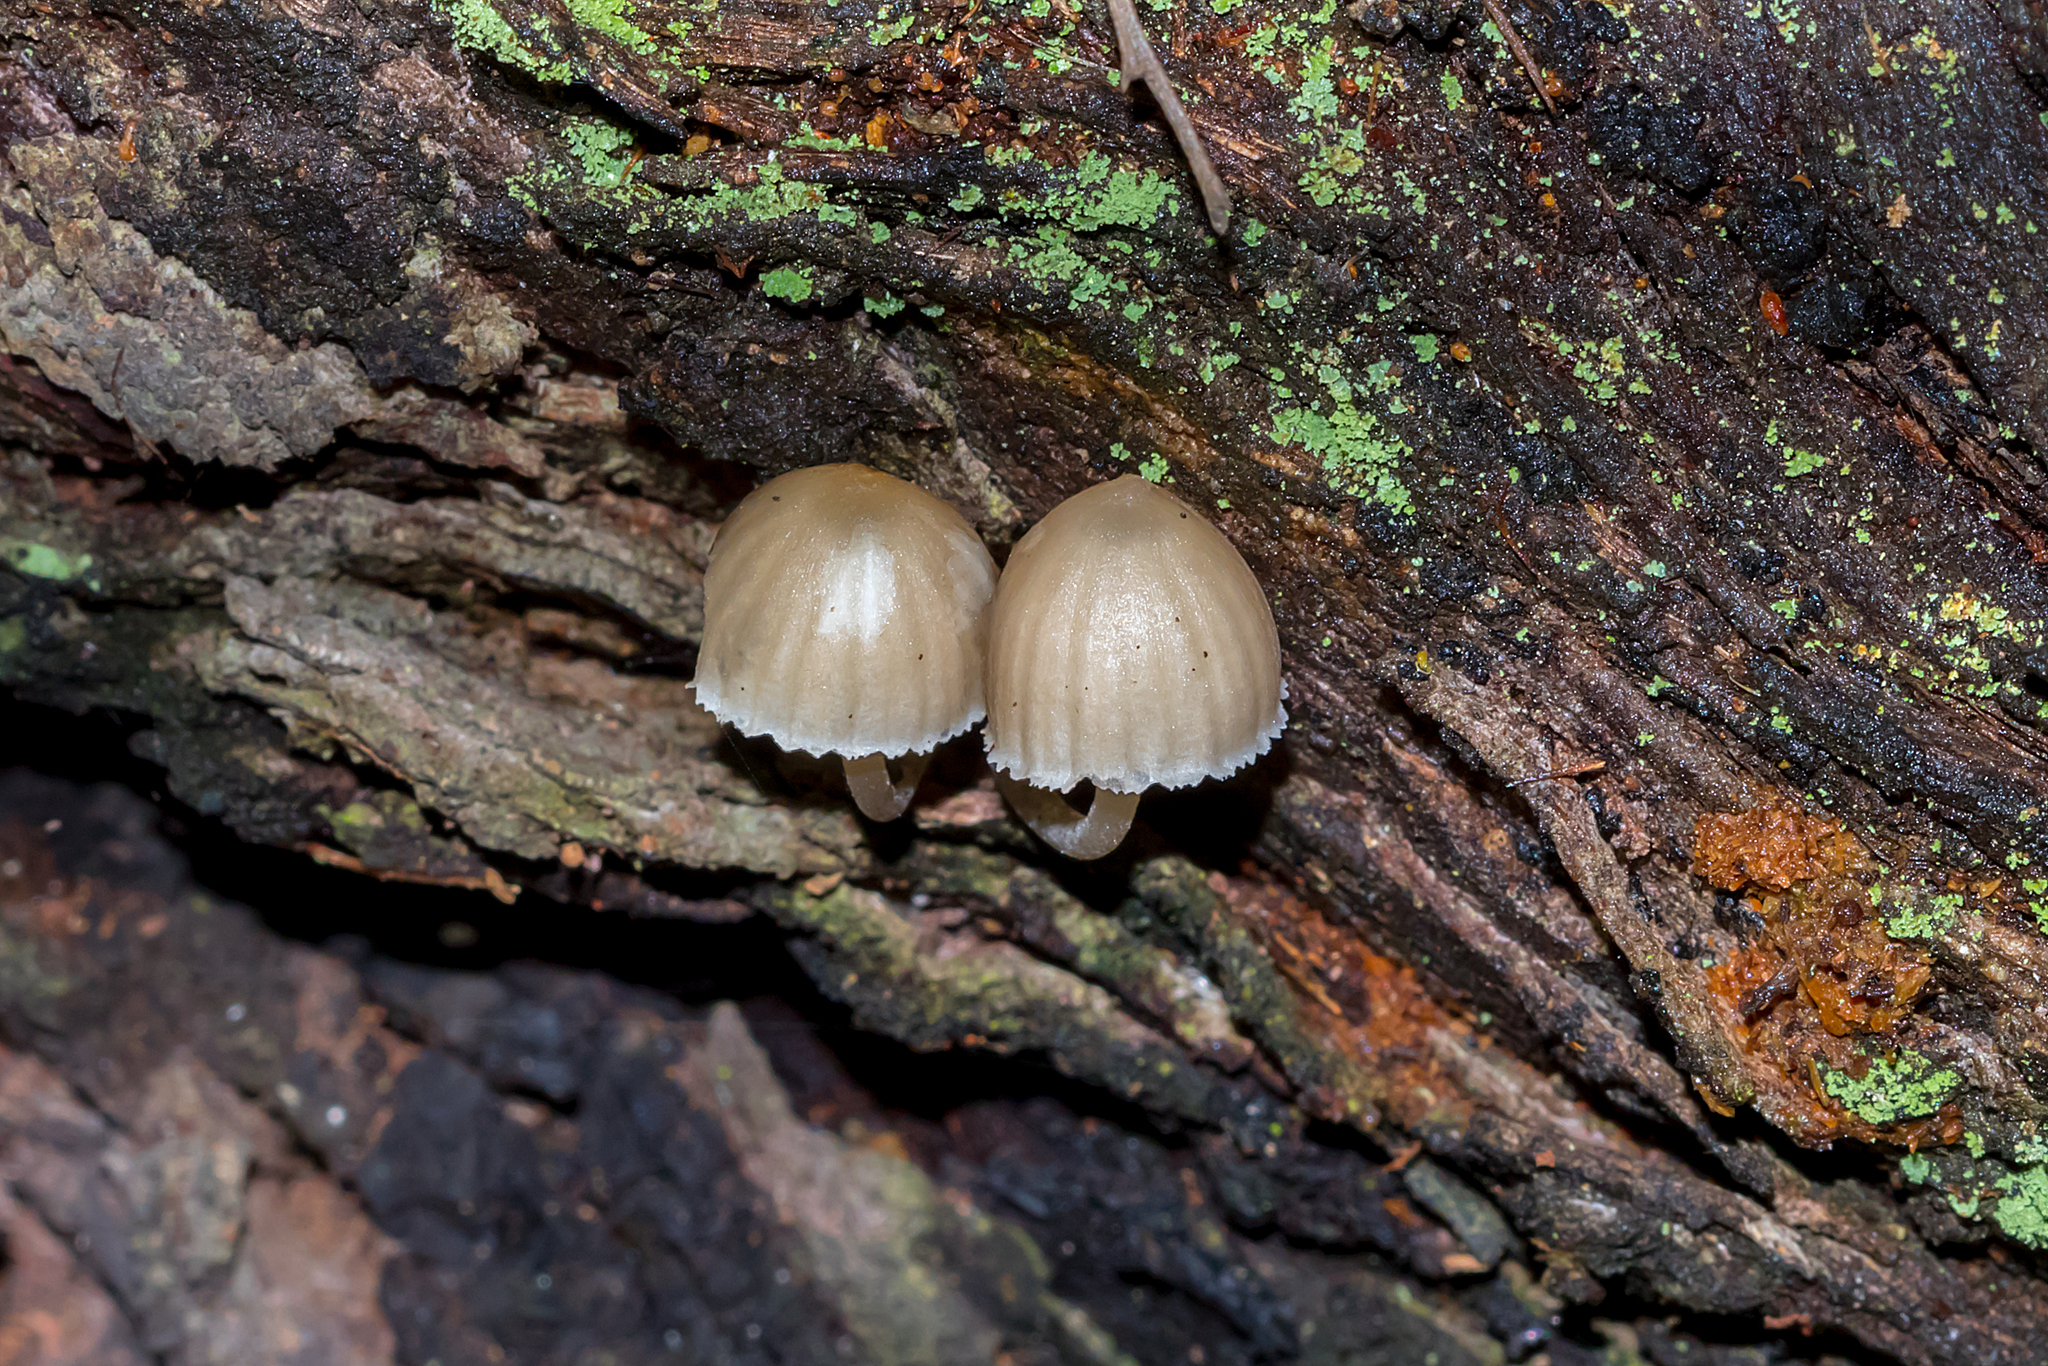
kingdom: Fungi
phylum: Basidiomycota
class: Agaricomycetes
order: Agaricales
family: Mycenaceae
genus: Mycena
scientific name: Mycena subgalericulata
